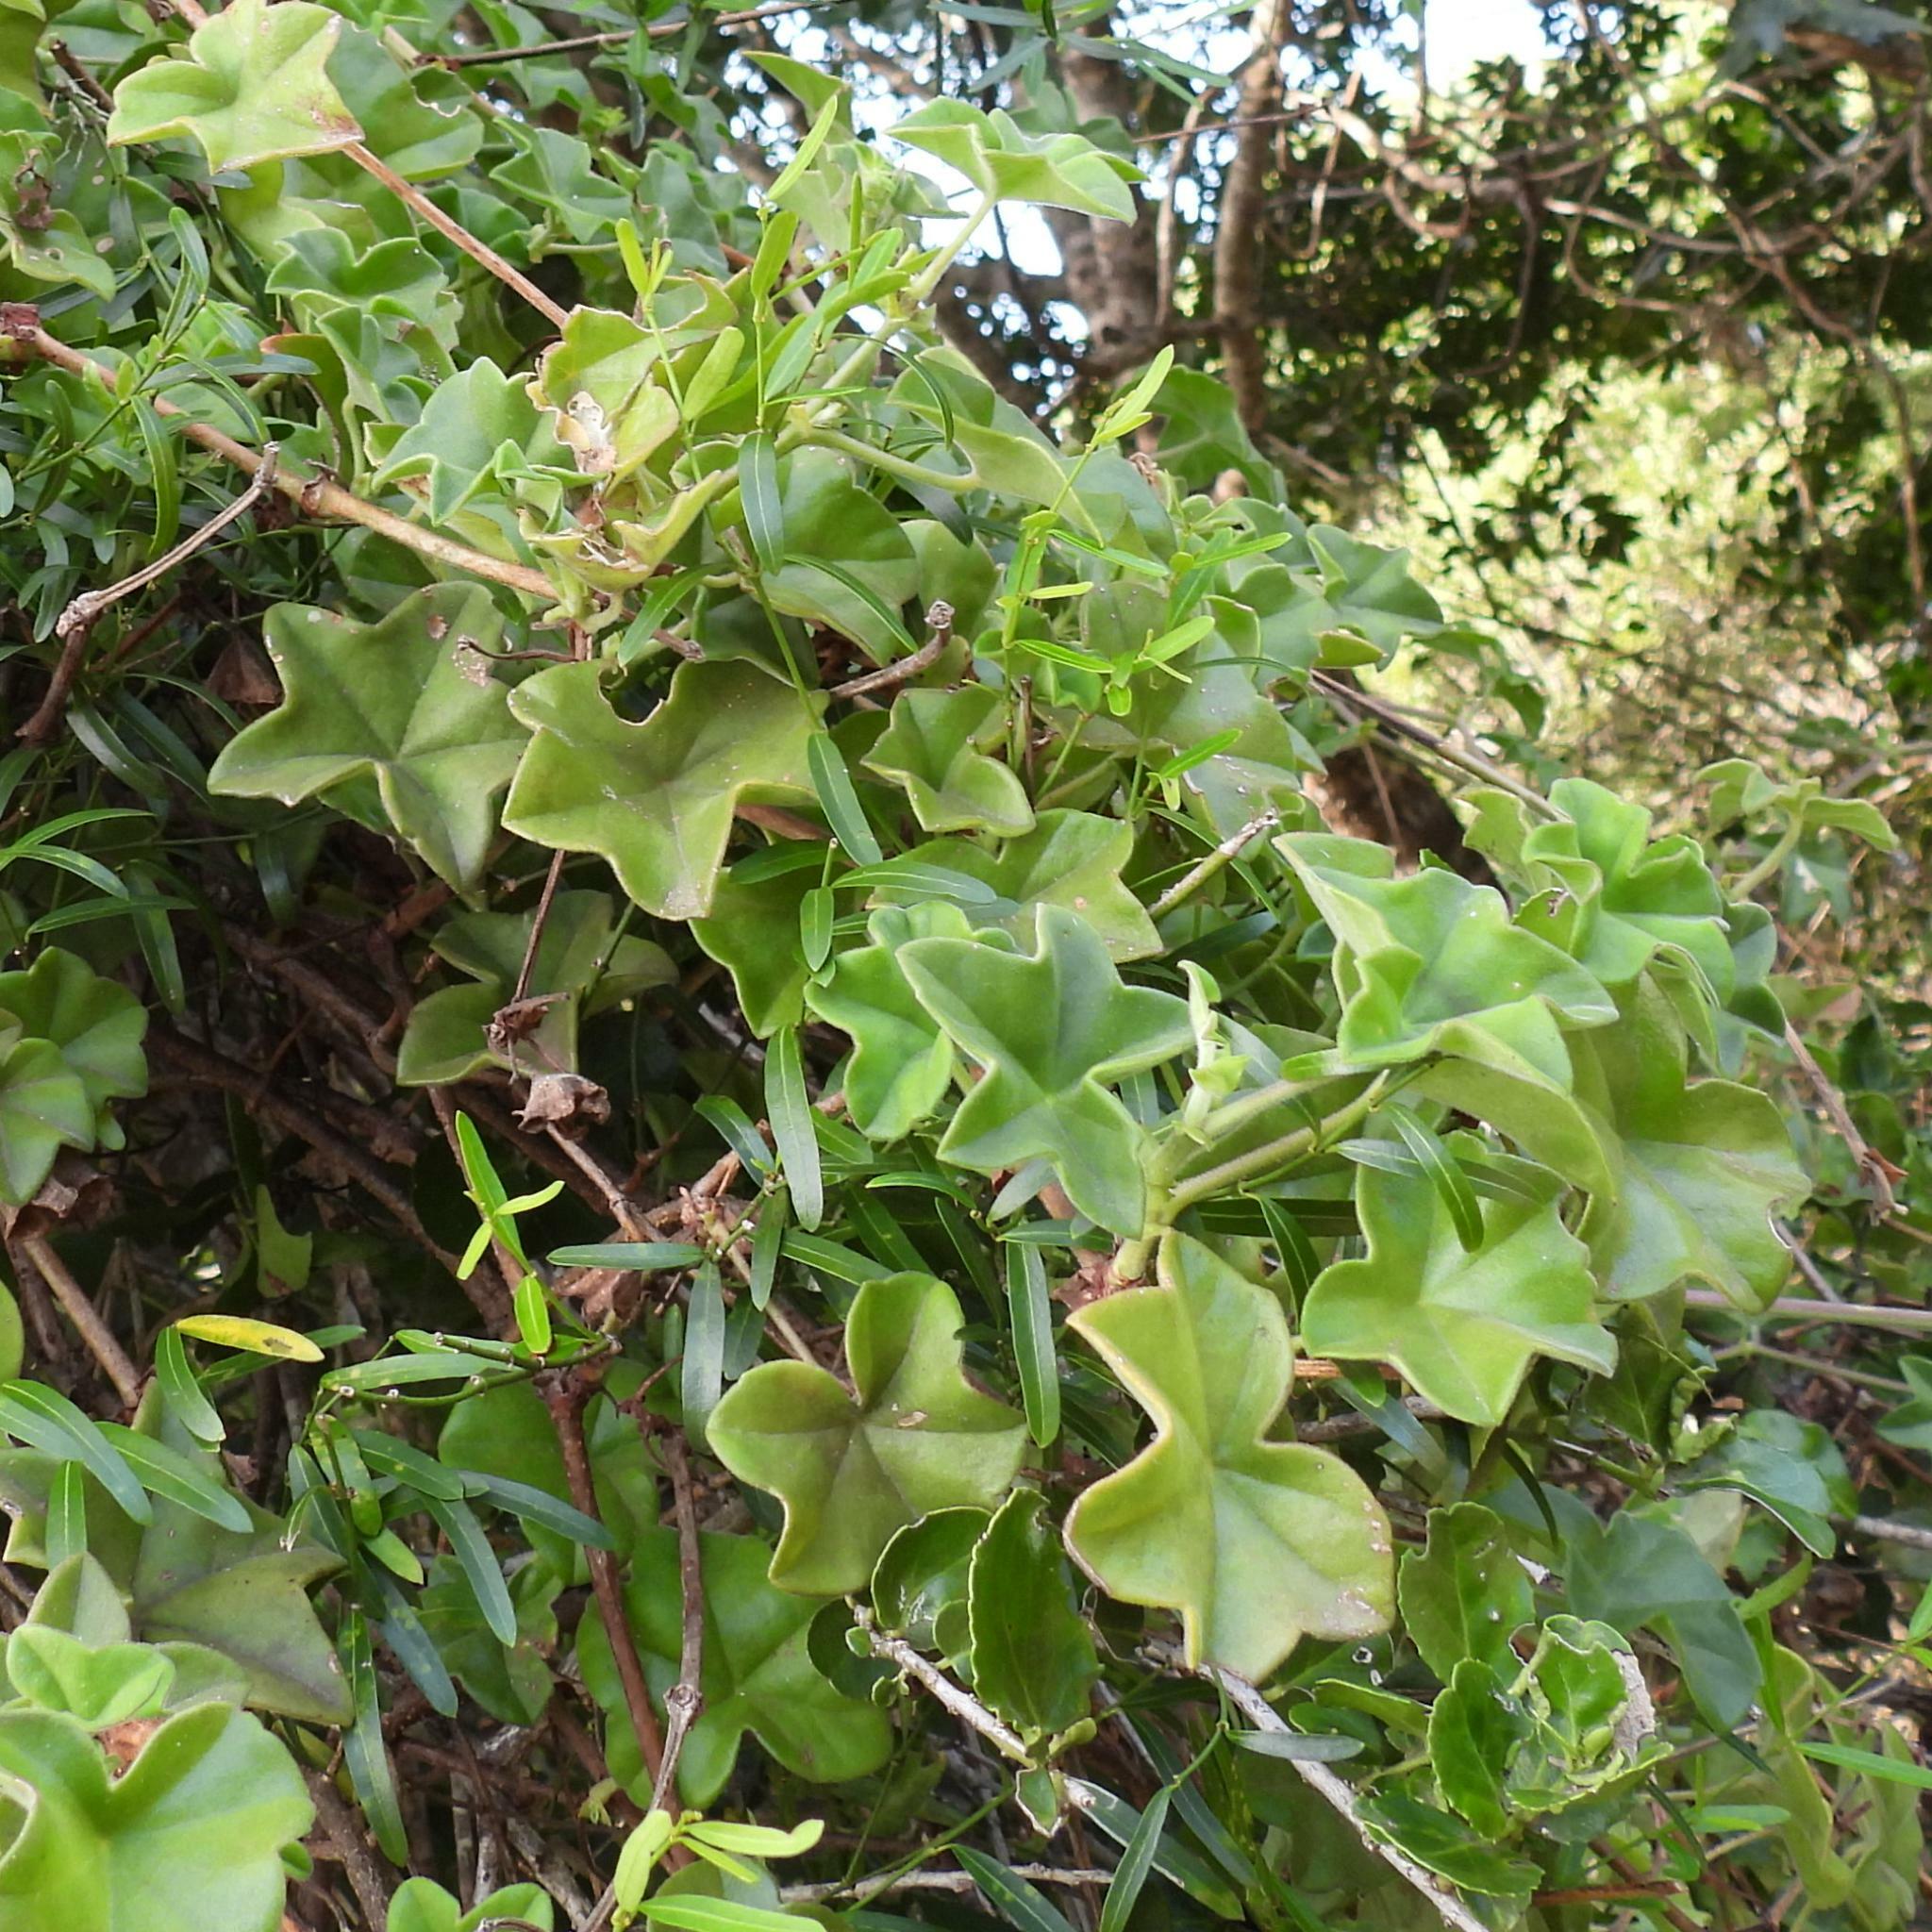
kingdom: Plantae
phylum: Tracheophyta
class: Magnoliopsida
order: Geraniales
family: Geraniaceae
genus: Pelargonium
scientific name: Pelargonium peltatum
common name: Ivyleaf geranium
